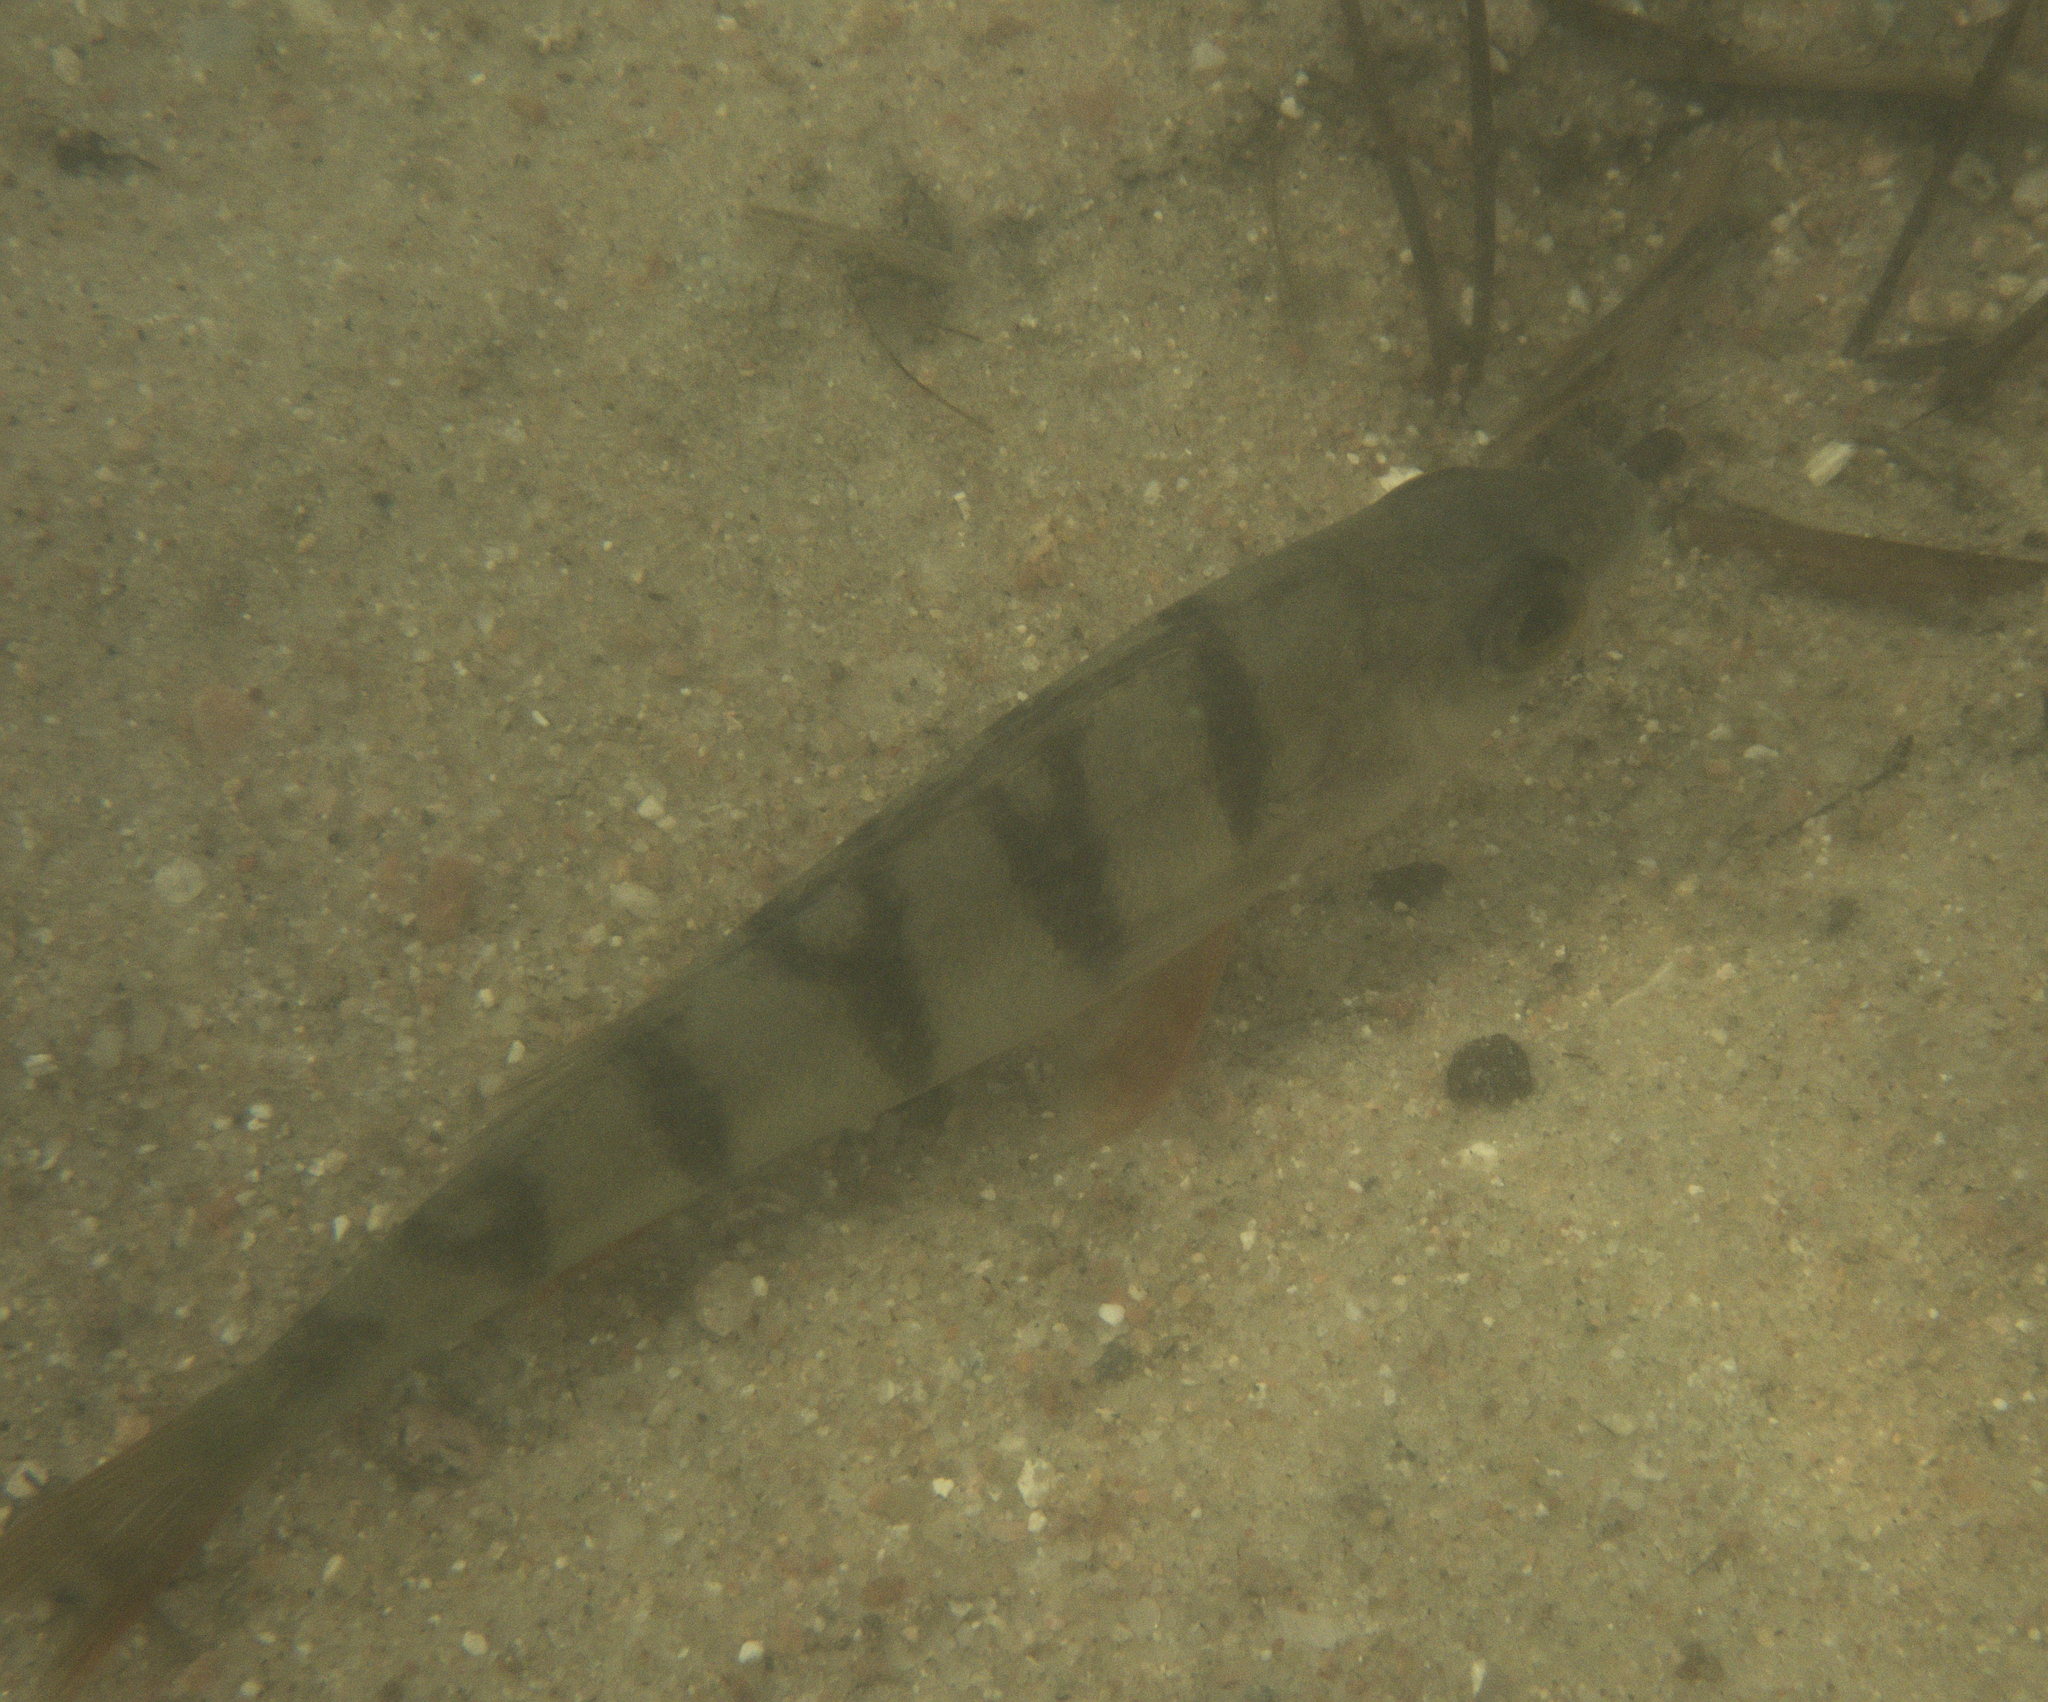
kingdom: Animalia
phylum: Chordata
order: Perciformes
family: Percidae
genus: Perca
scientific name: Perca fluviatilis
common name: Perch
